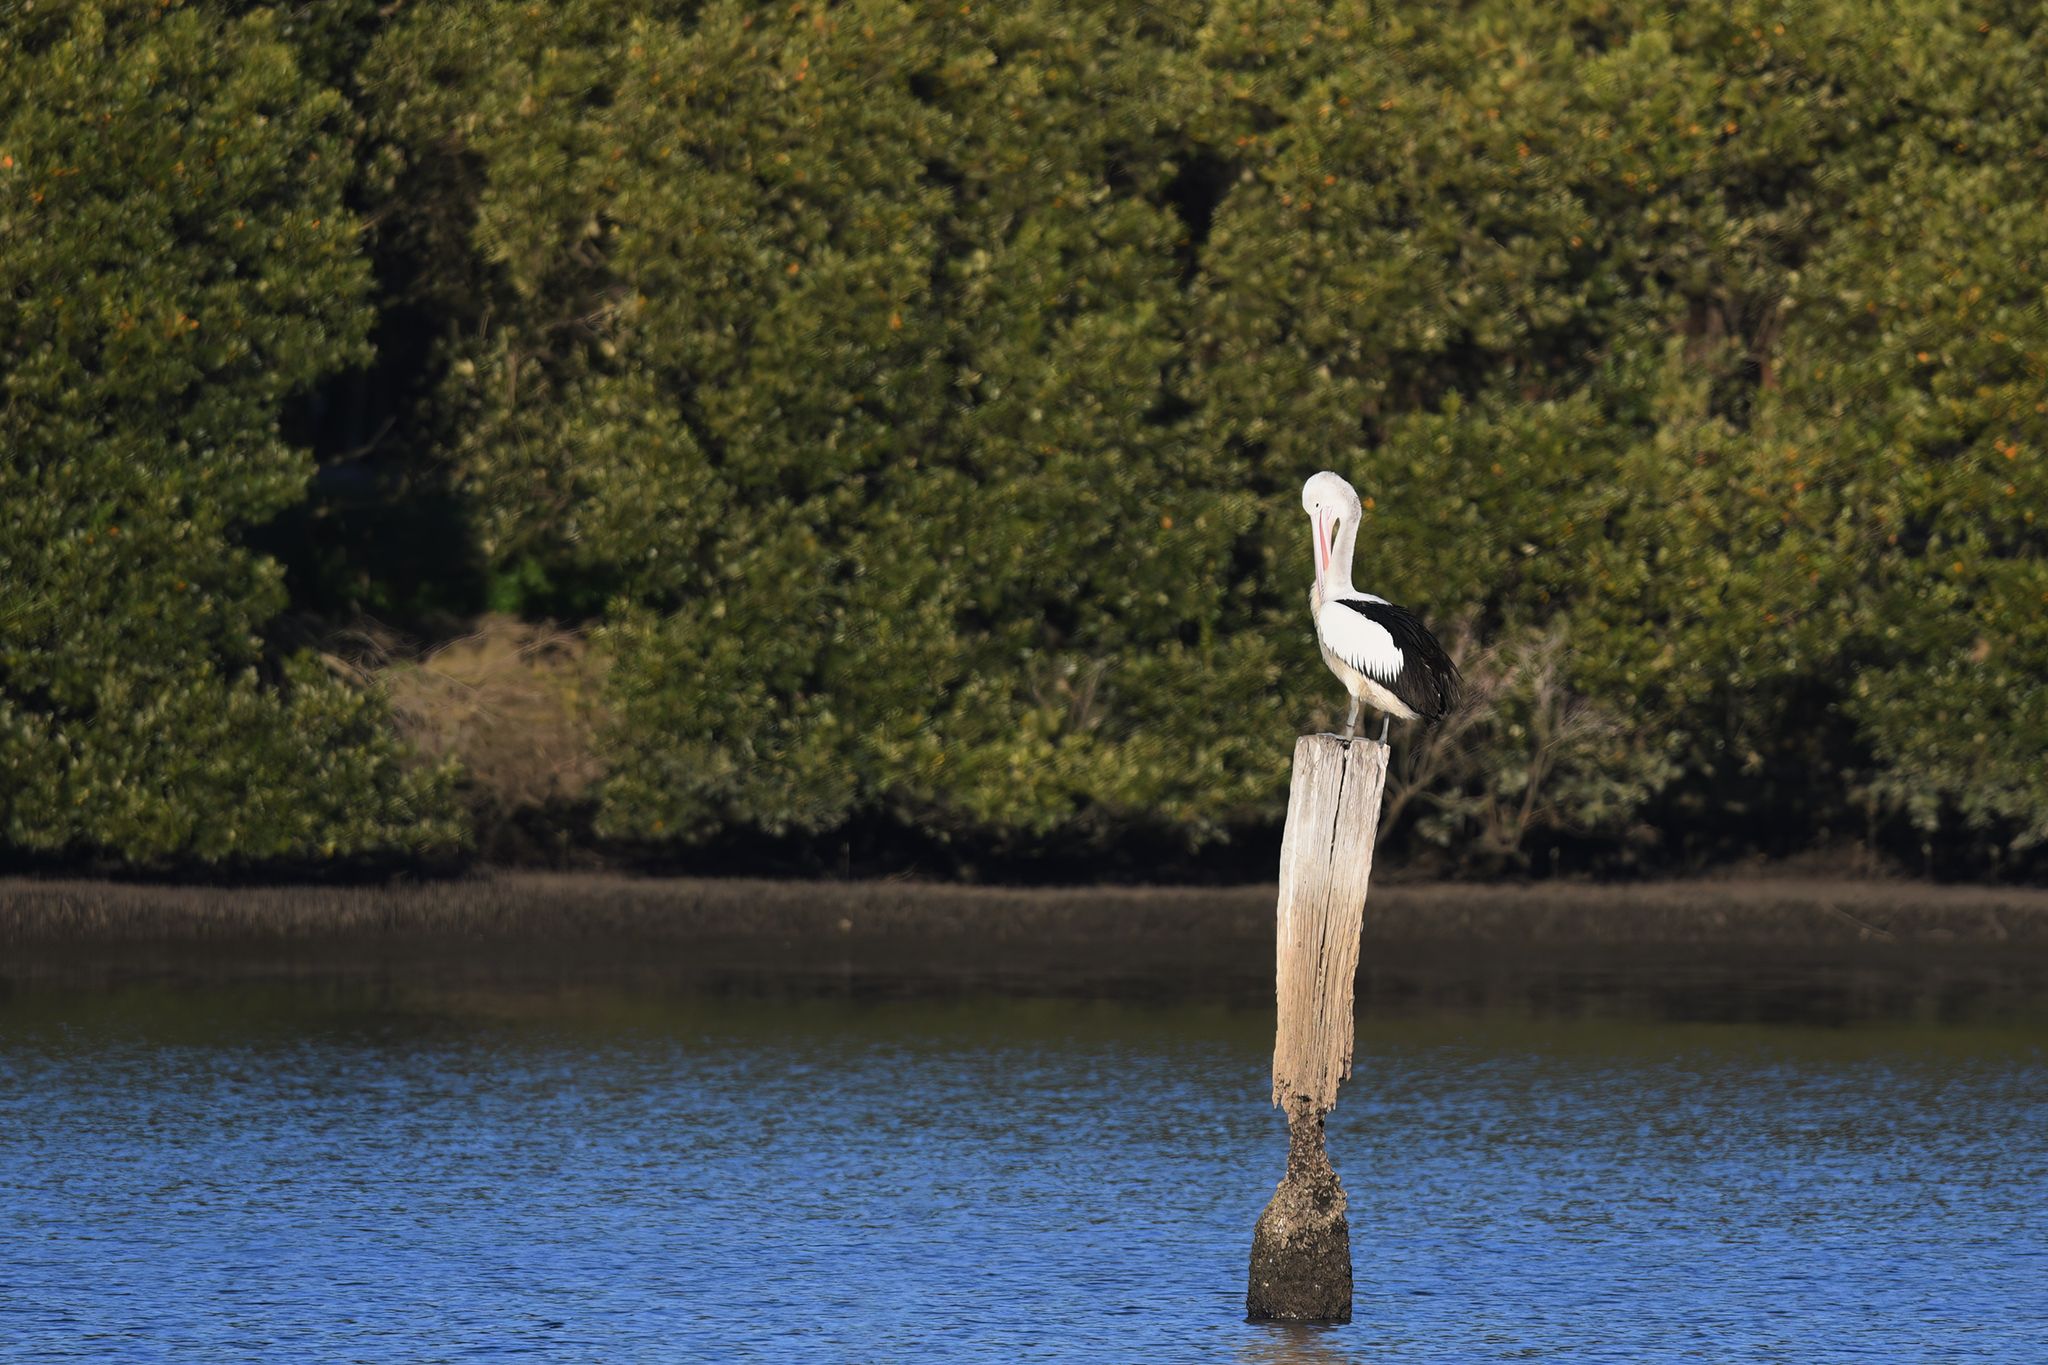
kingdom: Animalia
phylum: Chordata
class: Aves
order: Pelecaniformes
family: Pelecanidae
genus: Pelecanus
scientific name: Pelecanus conspicillatus
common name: Australian pelican
